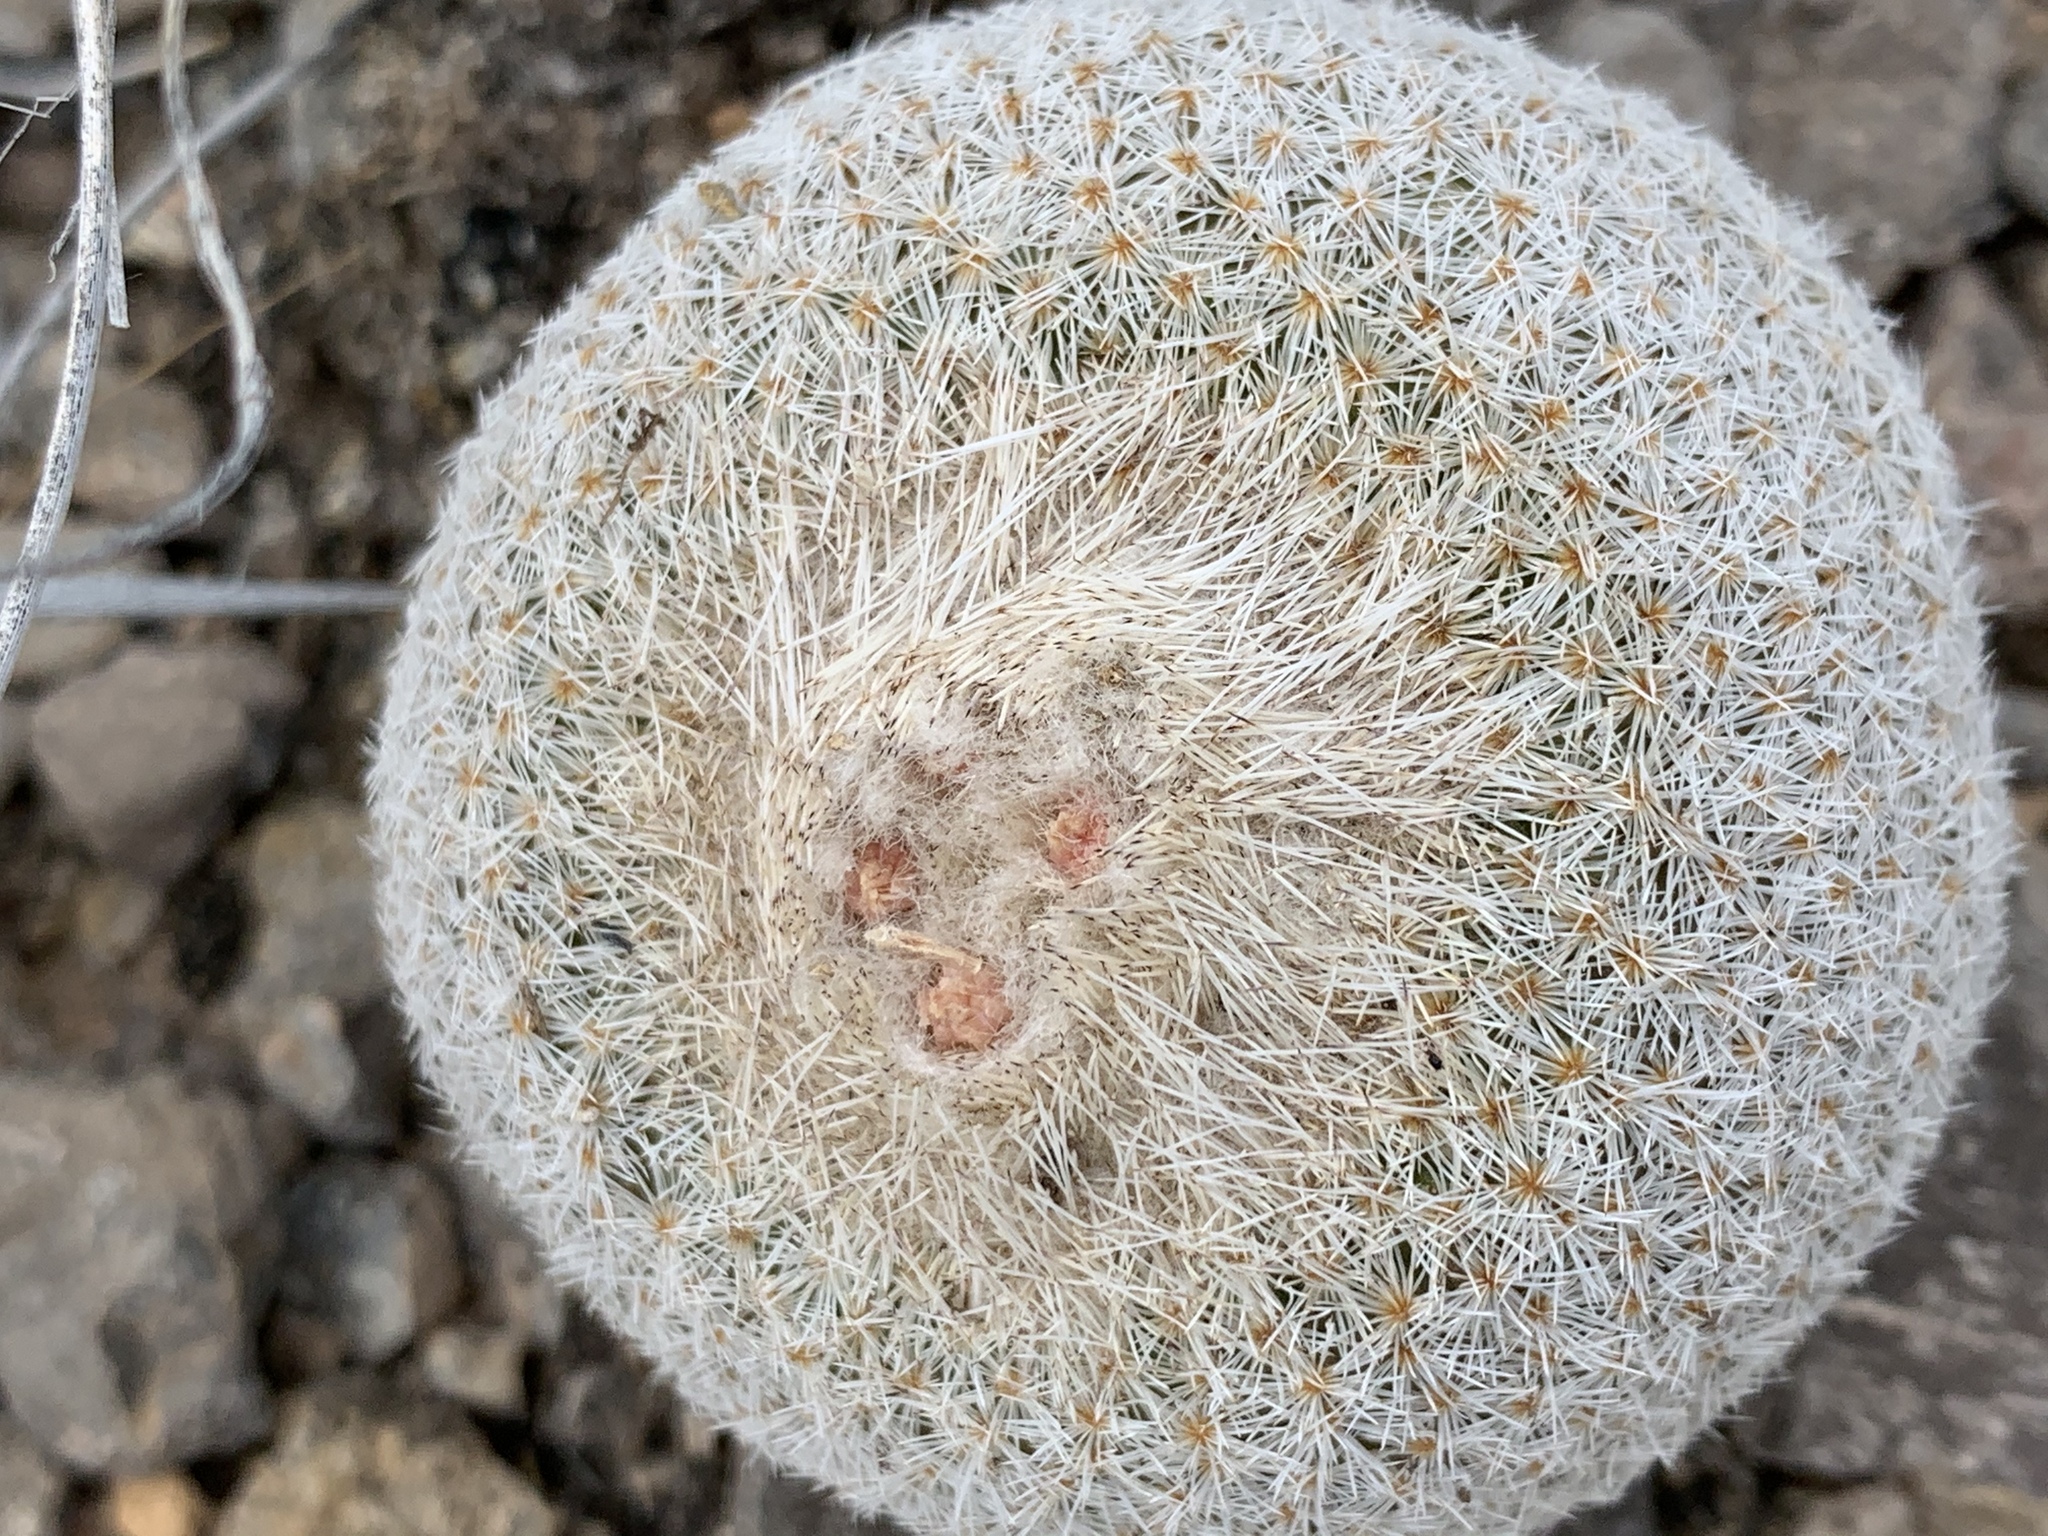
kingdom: Plantae
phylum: Tracheophyta
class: Magnoliopsida
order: Caryophyllales
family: Cactaceae
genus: Epithelantha
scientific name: Epithelantha micromeris
